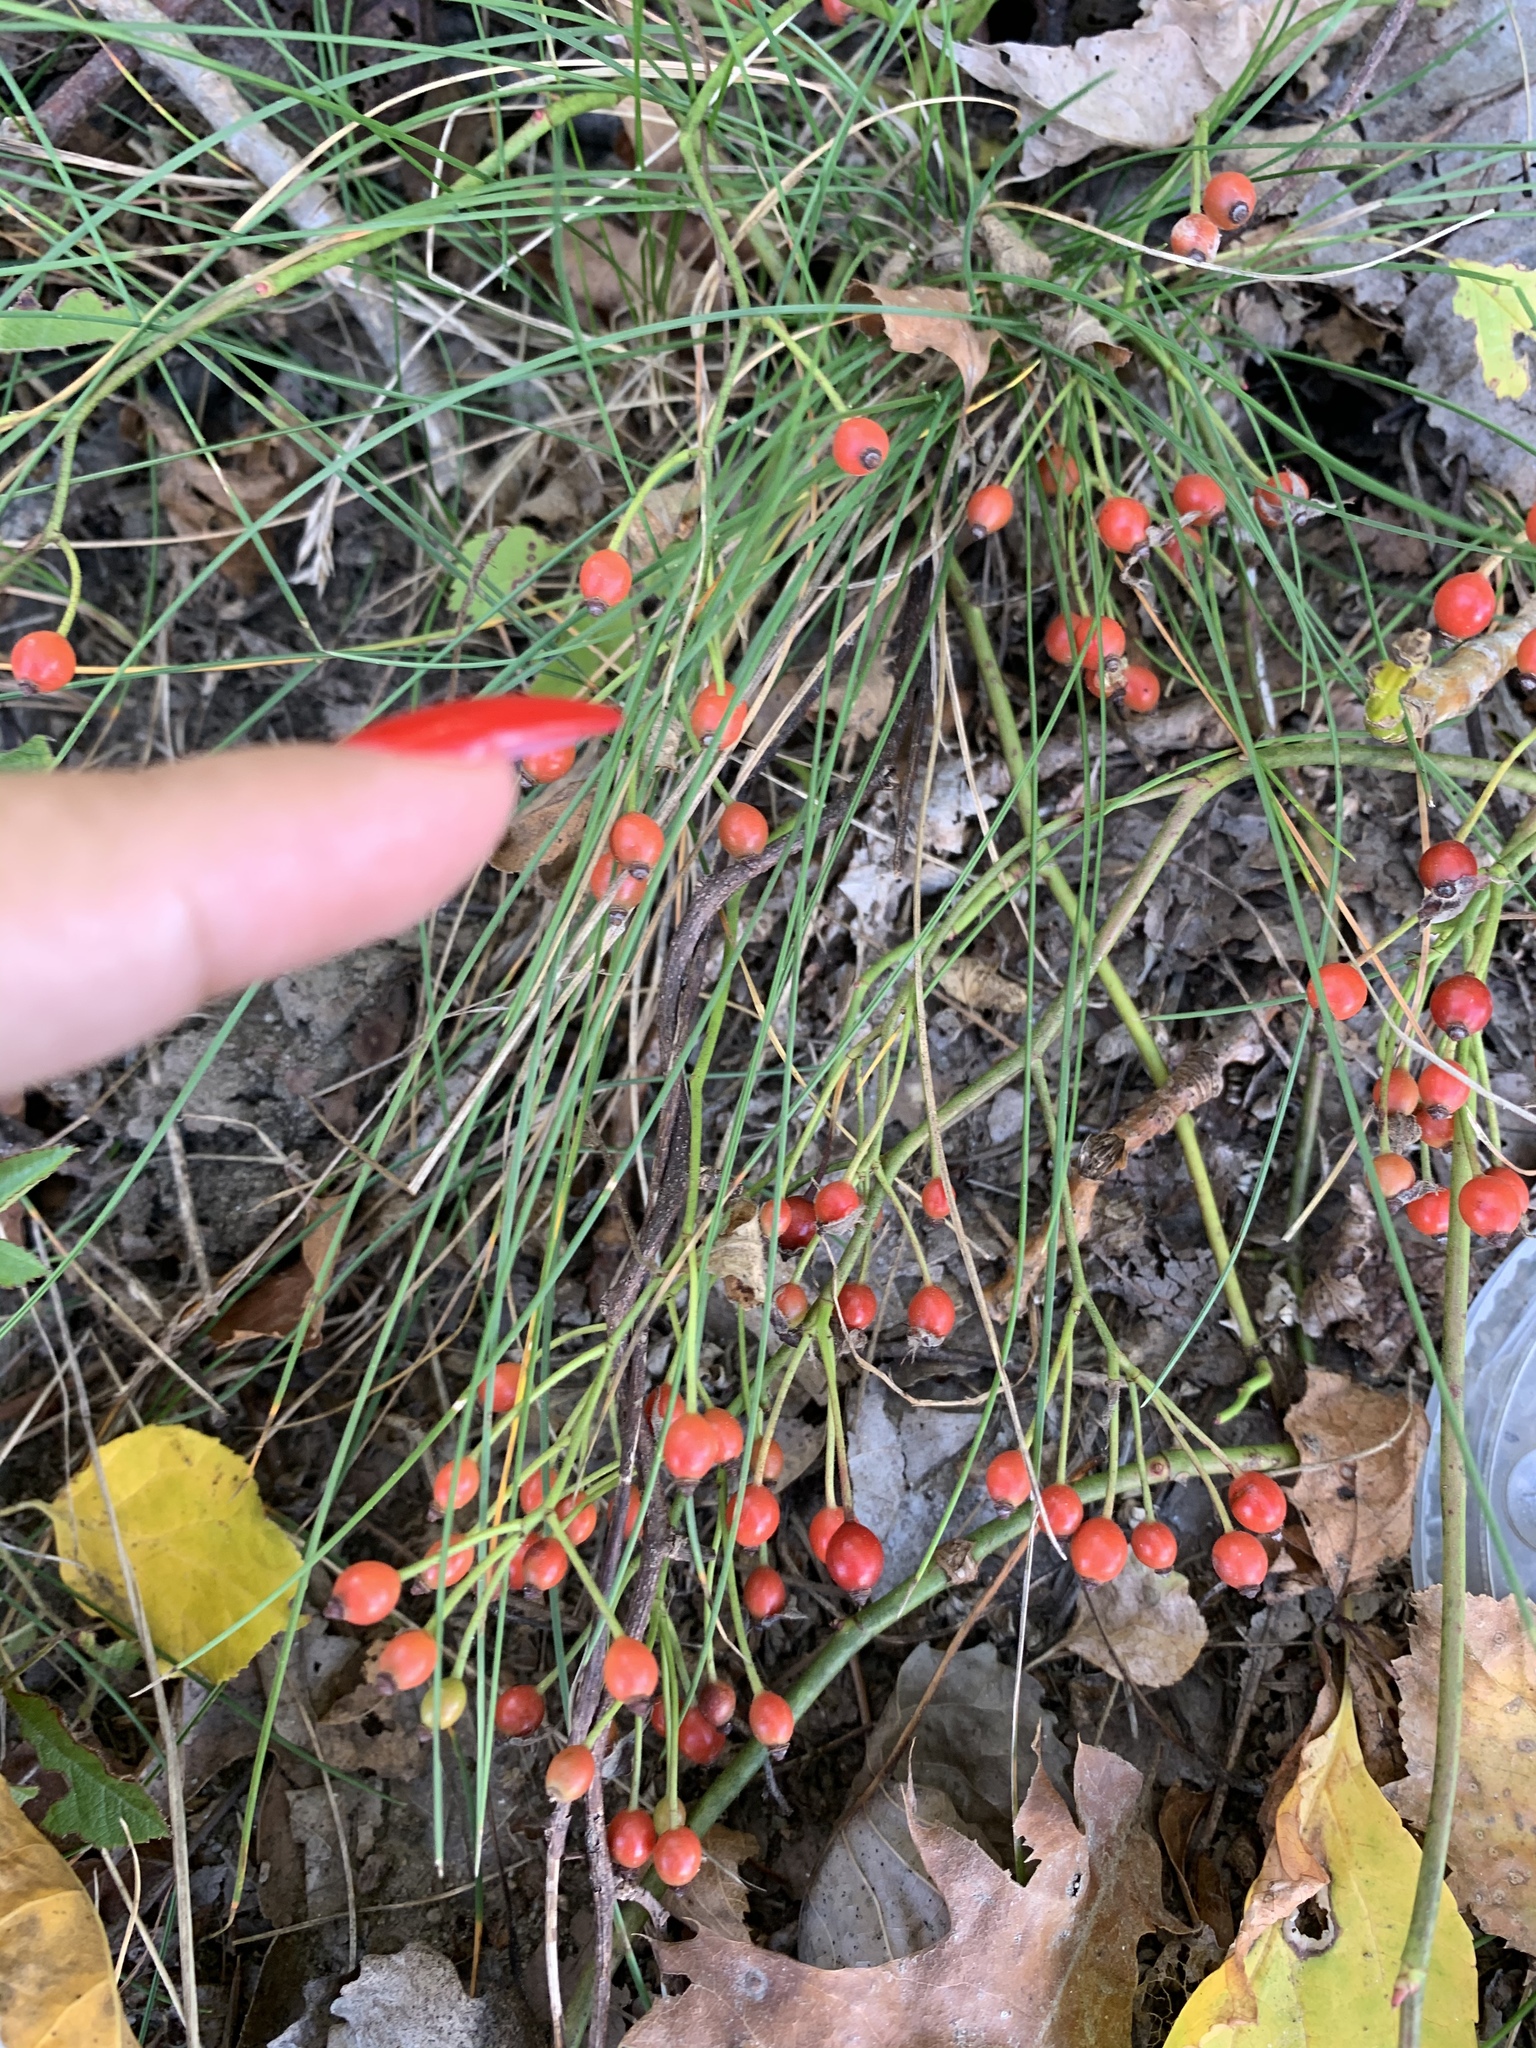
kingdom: Plantae
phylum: Tracheophyta
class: Magnoliopsida
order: Rosales
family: Rosaceae
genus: Rosa
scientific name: Rosa multiflora
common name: Multiflora rose
